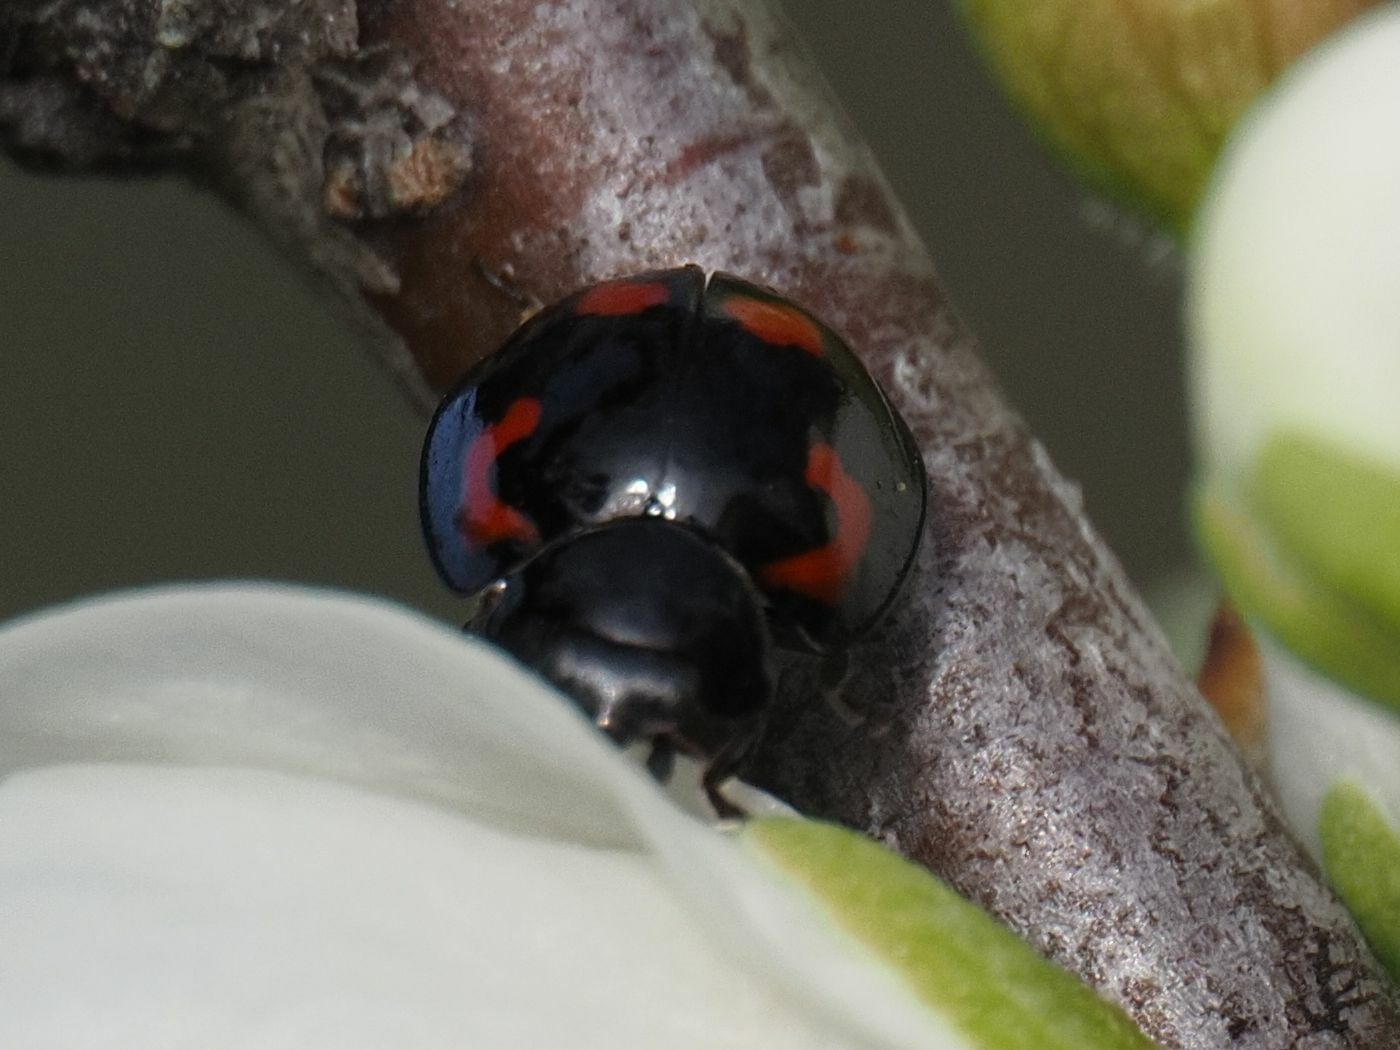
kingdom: Animalia
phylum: Arthropoda
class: Insecta
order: Coleoptera
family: Coccinellidae
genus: Brumus
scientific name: Brumus quadripustulatus
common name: Ladybird beetle
